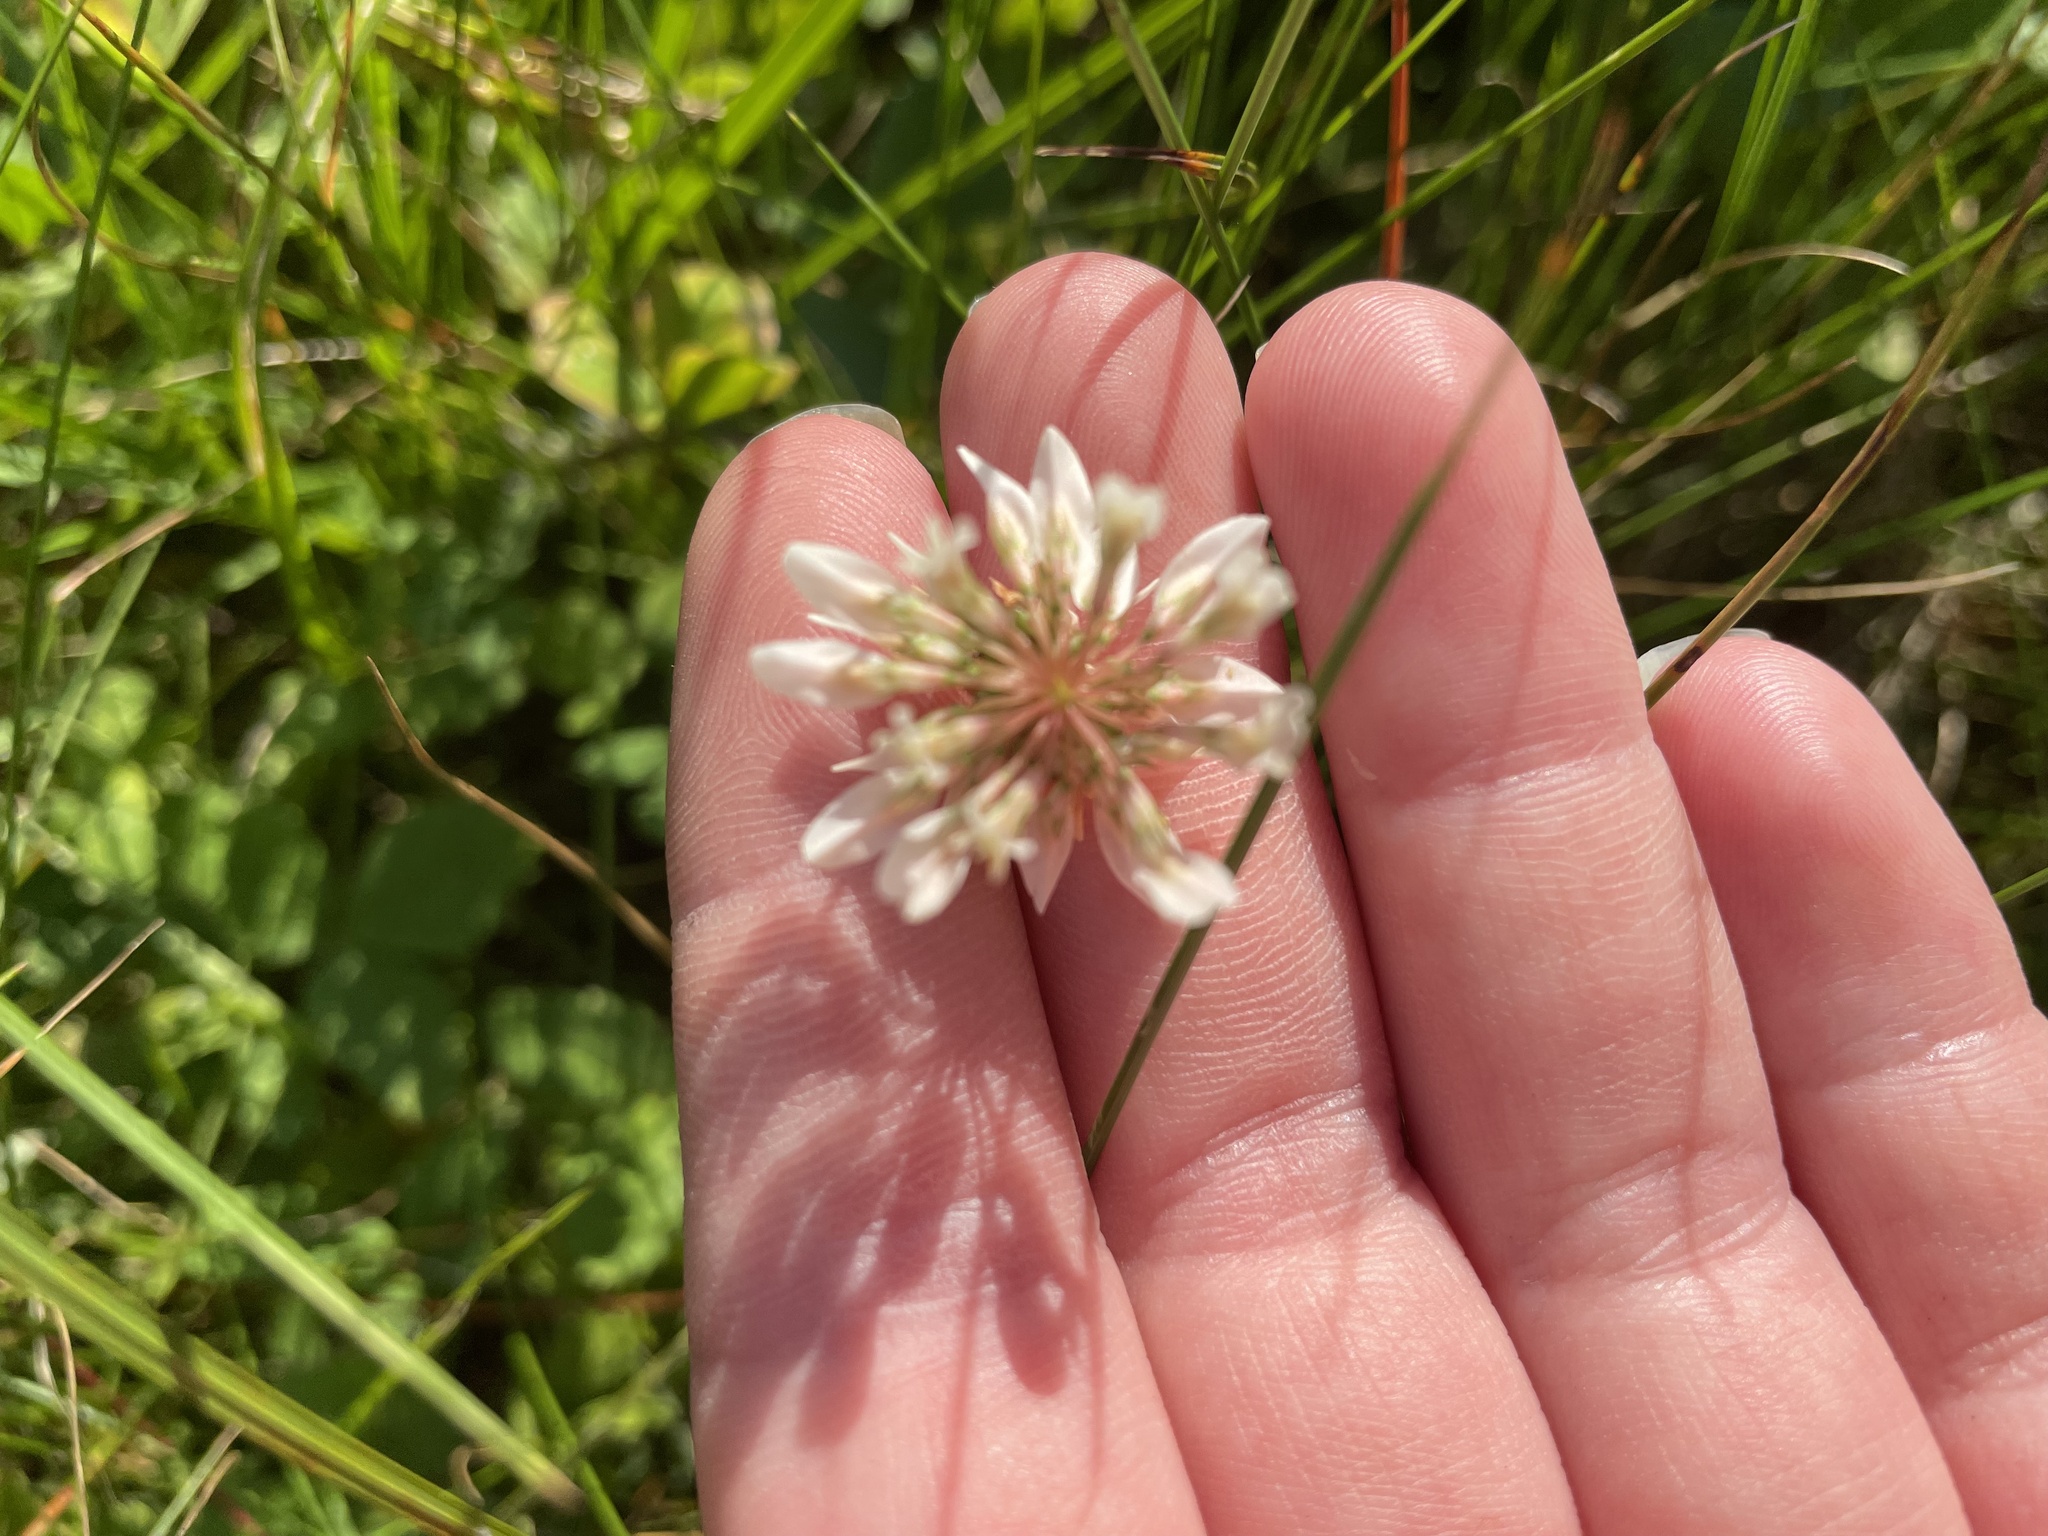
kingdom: Plantae
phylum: Tracheophyta
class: Magnoliopsida
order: Fabales
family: Fabaceae
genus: Trifolium
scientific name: Trifolium repens
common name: White clover
